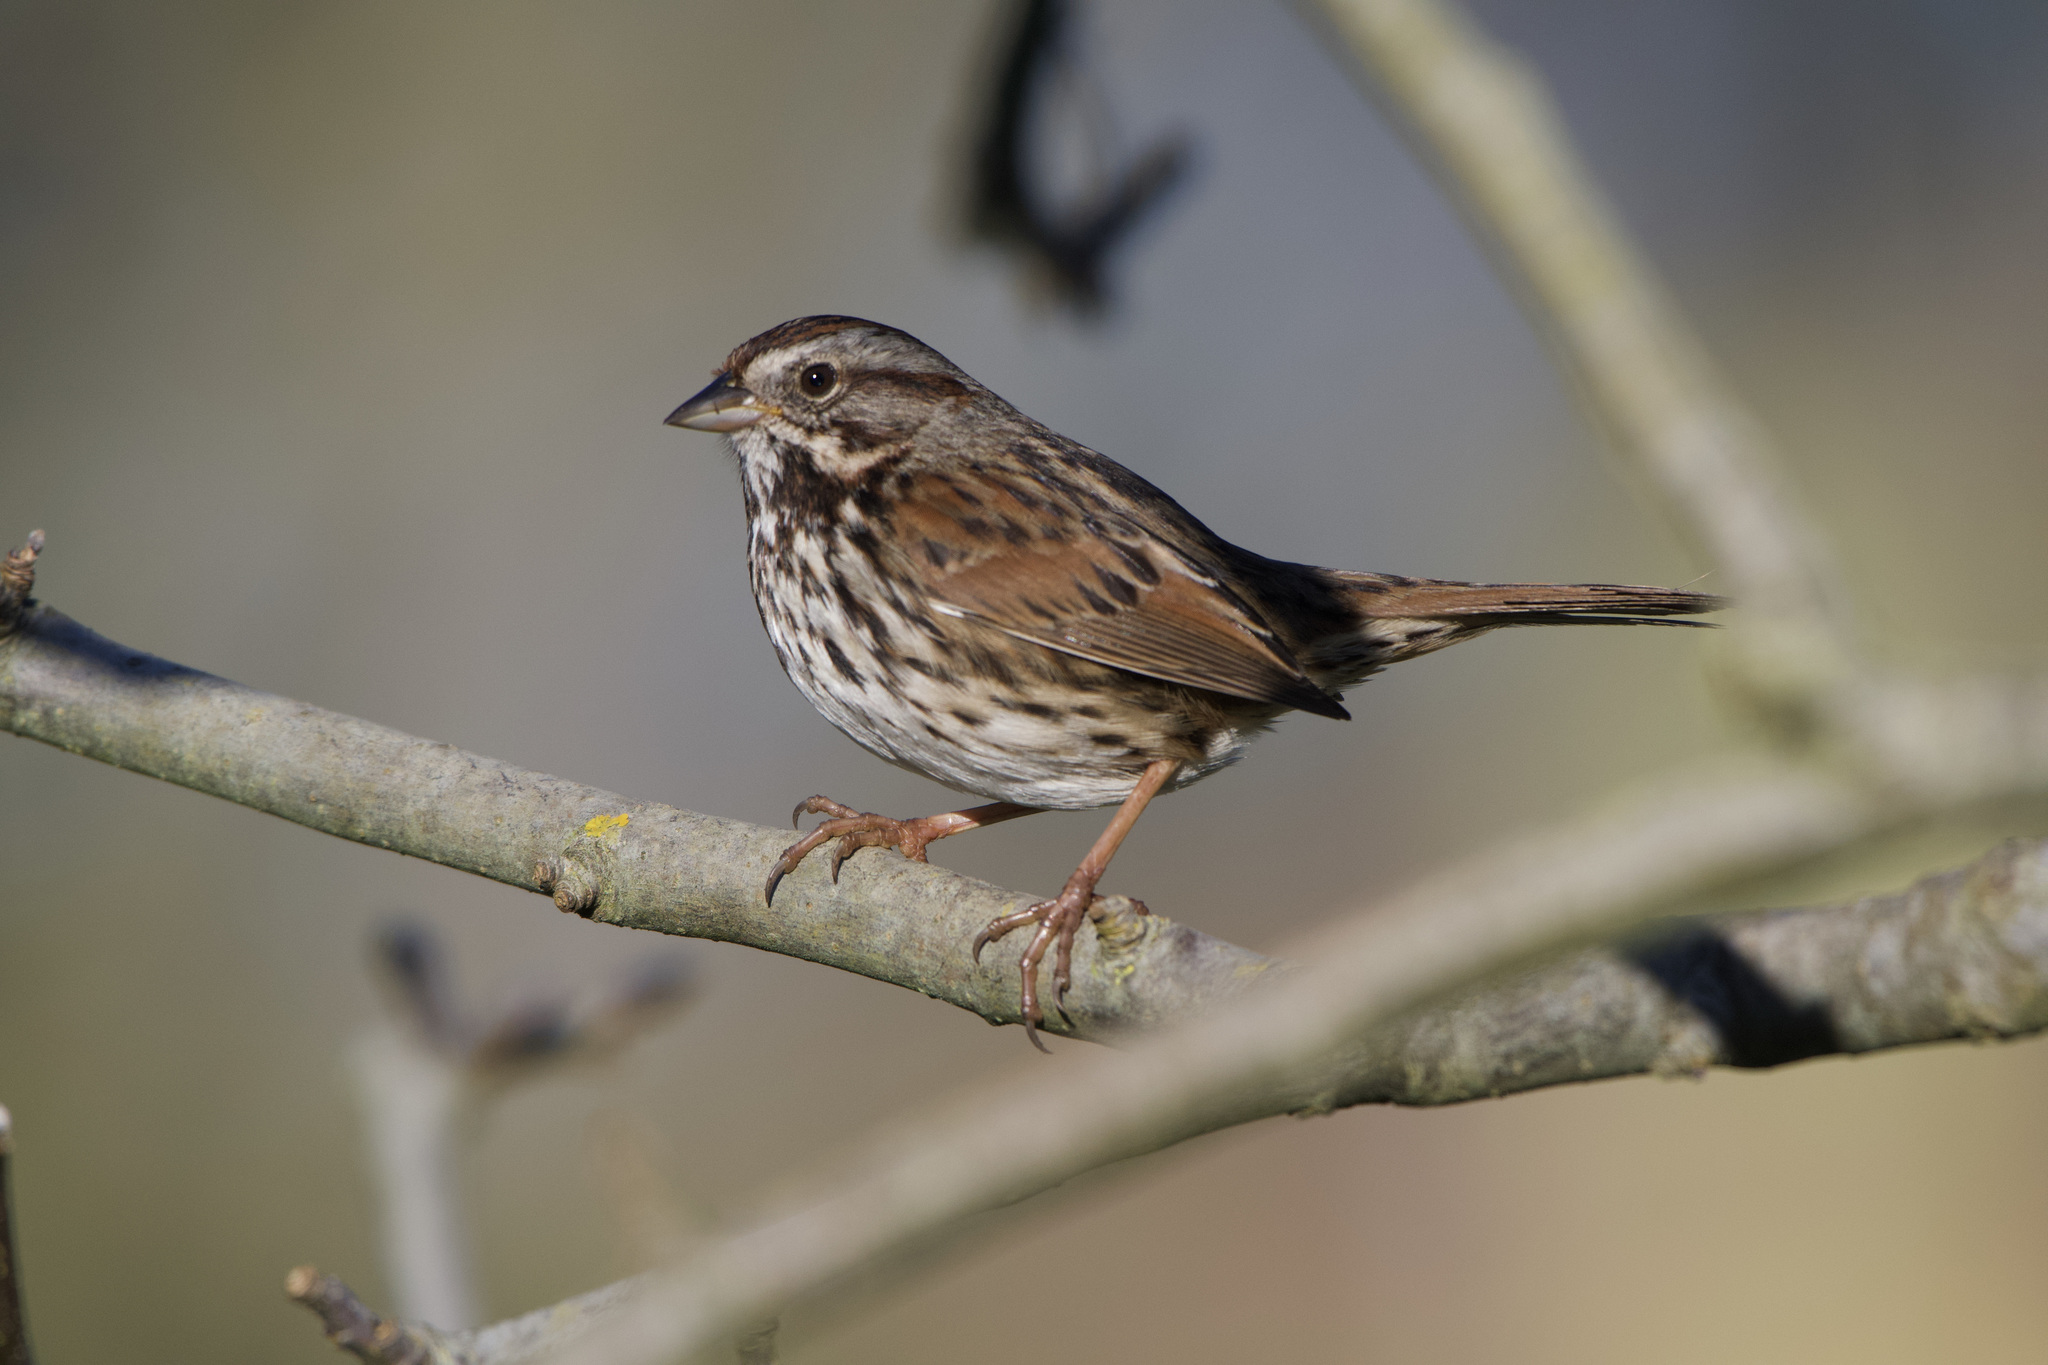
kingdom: Animalia
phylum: Chordata
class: Aves
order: Passeriformes
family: Passerellidae
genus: Melospiza
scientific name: Melospiza melodia
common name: Song sparrow
